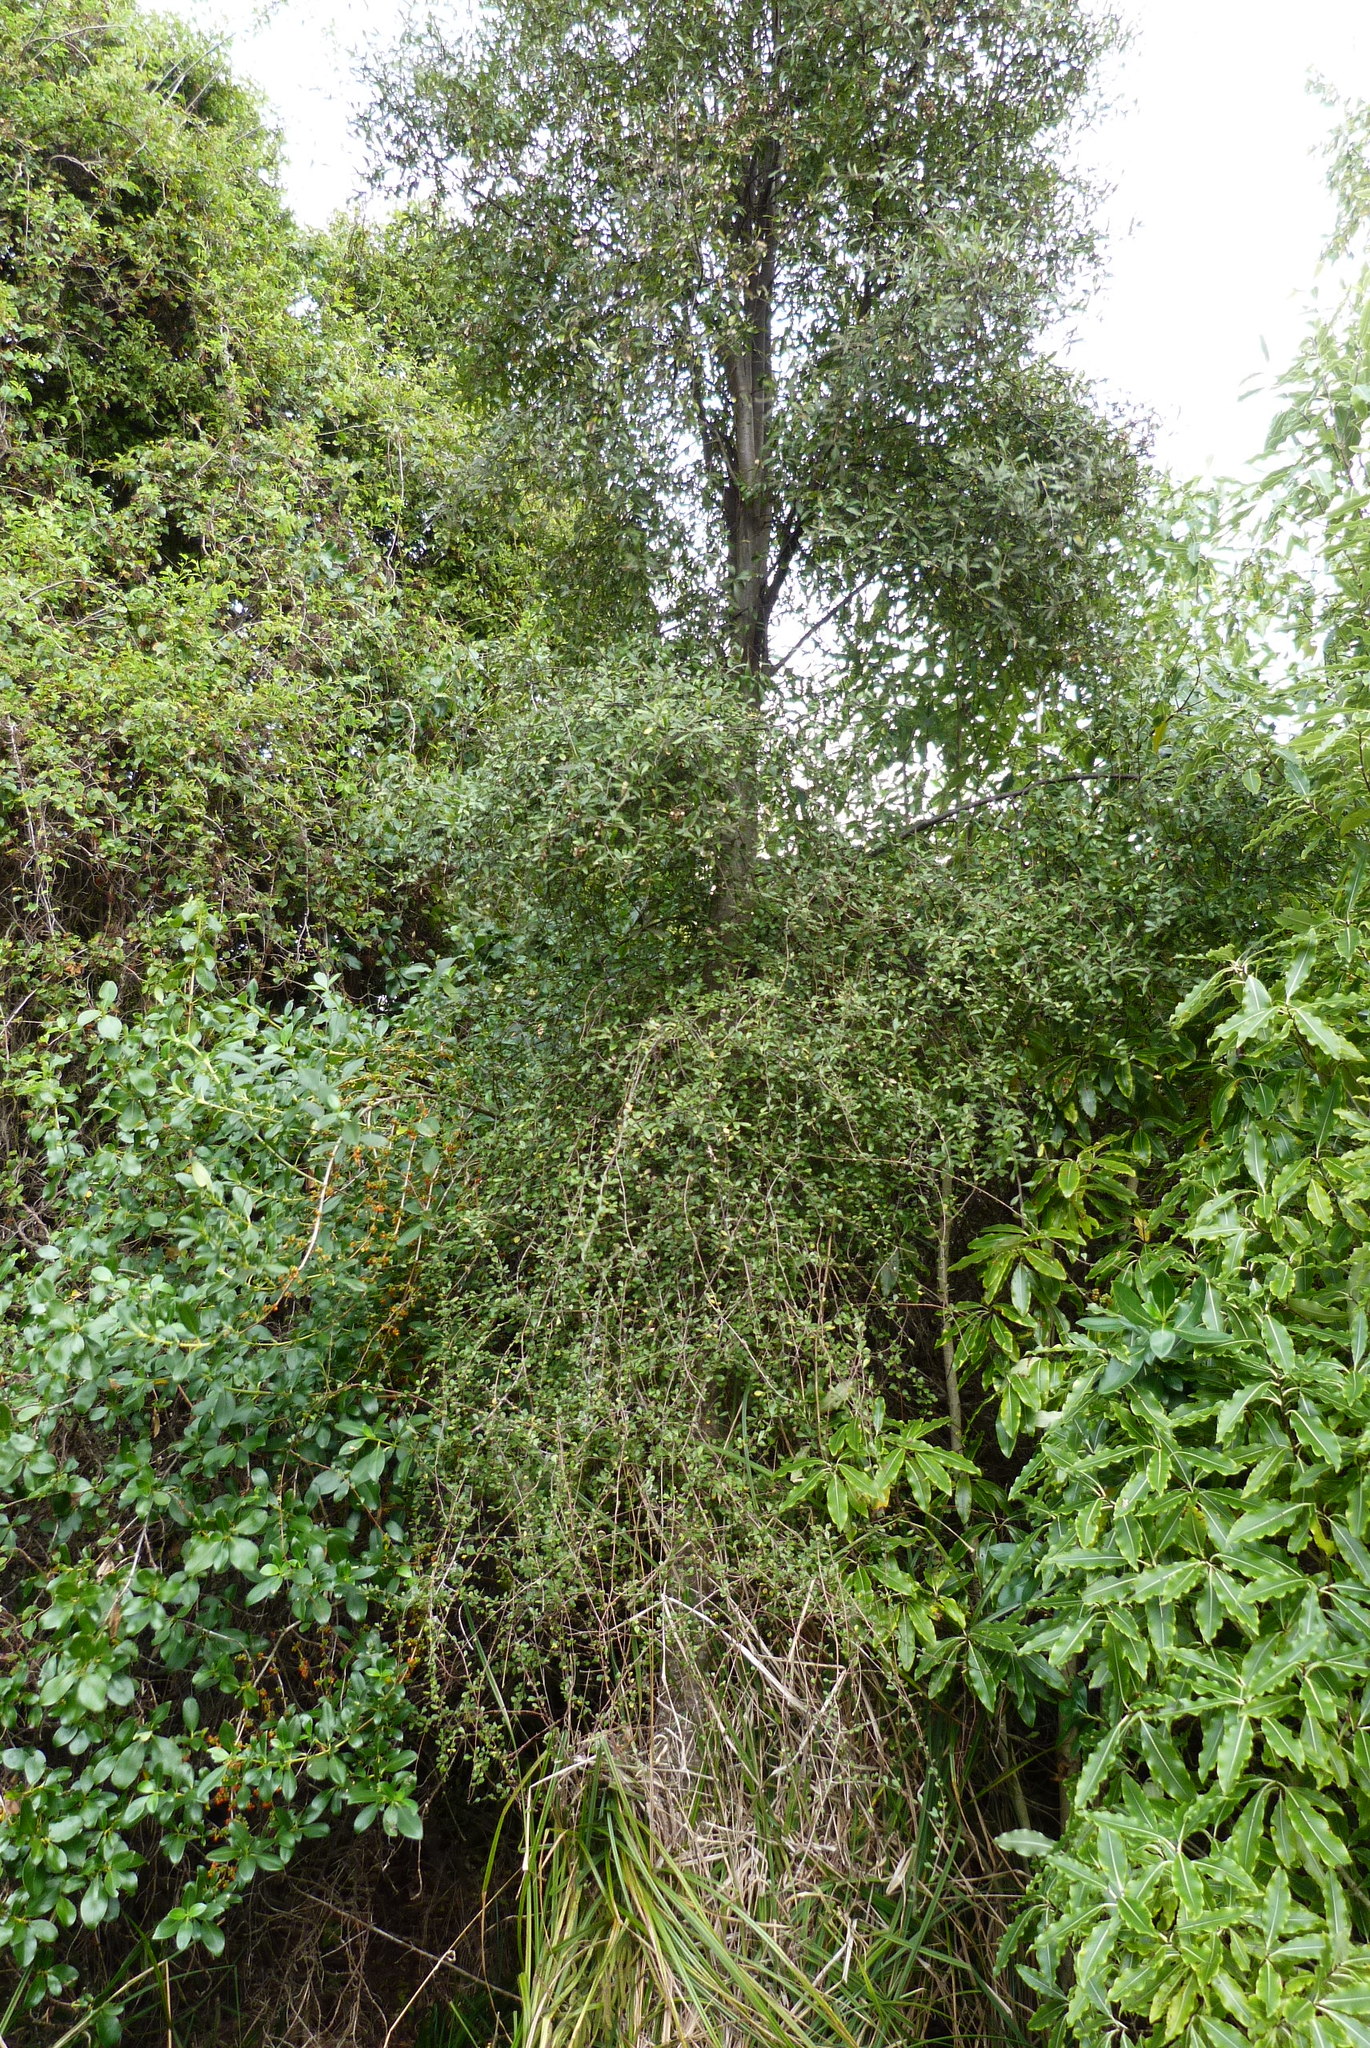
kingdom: Plantae
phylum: Tracheophyta
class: Magnoliopsida
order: Malvales
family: Malvaceae
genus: Hoheria
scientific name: Hoheria angustifolia
